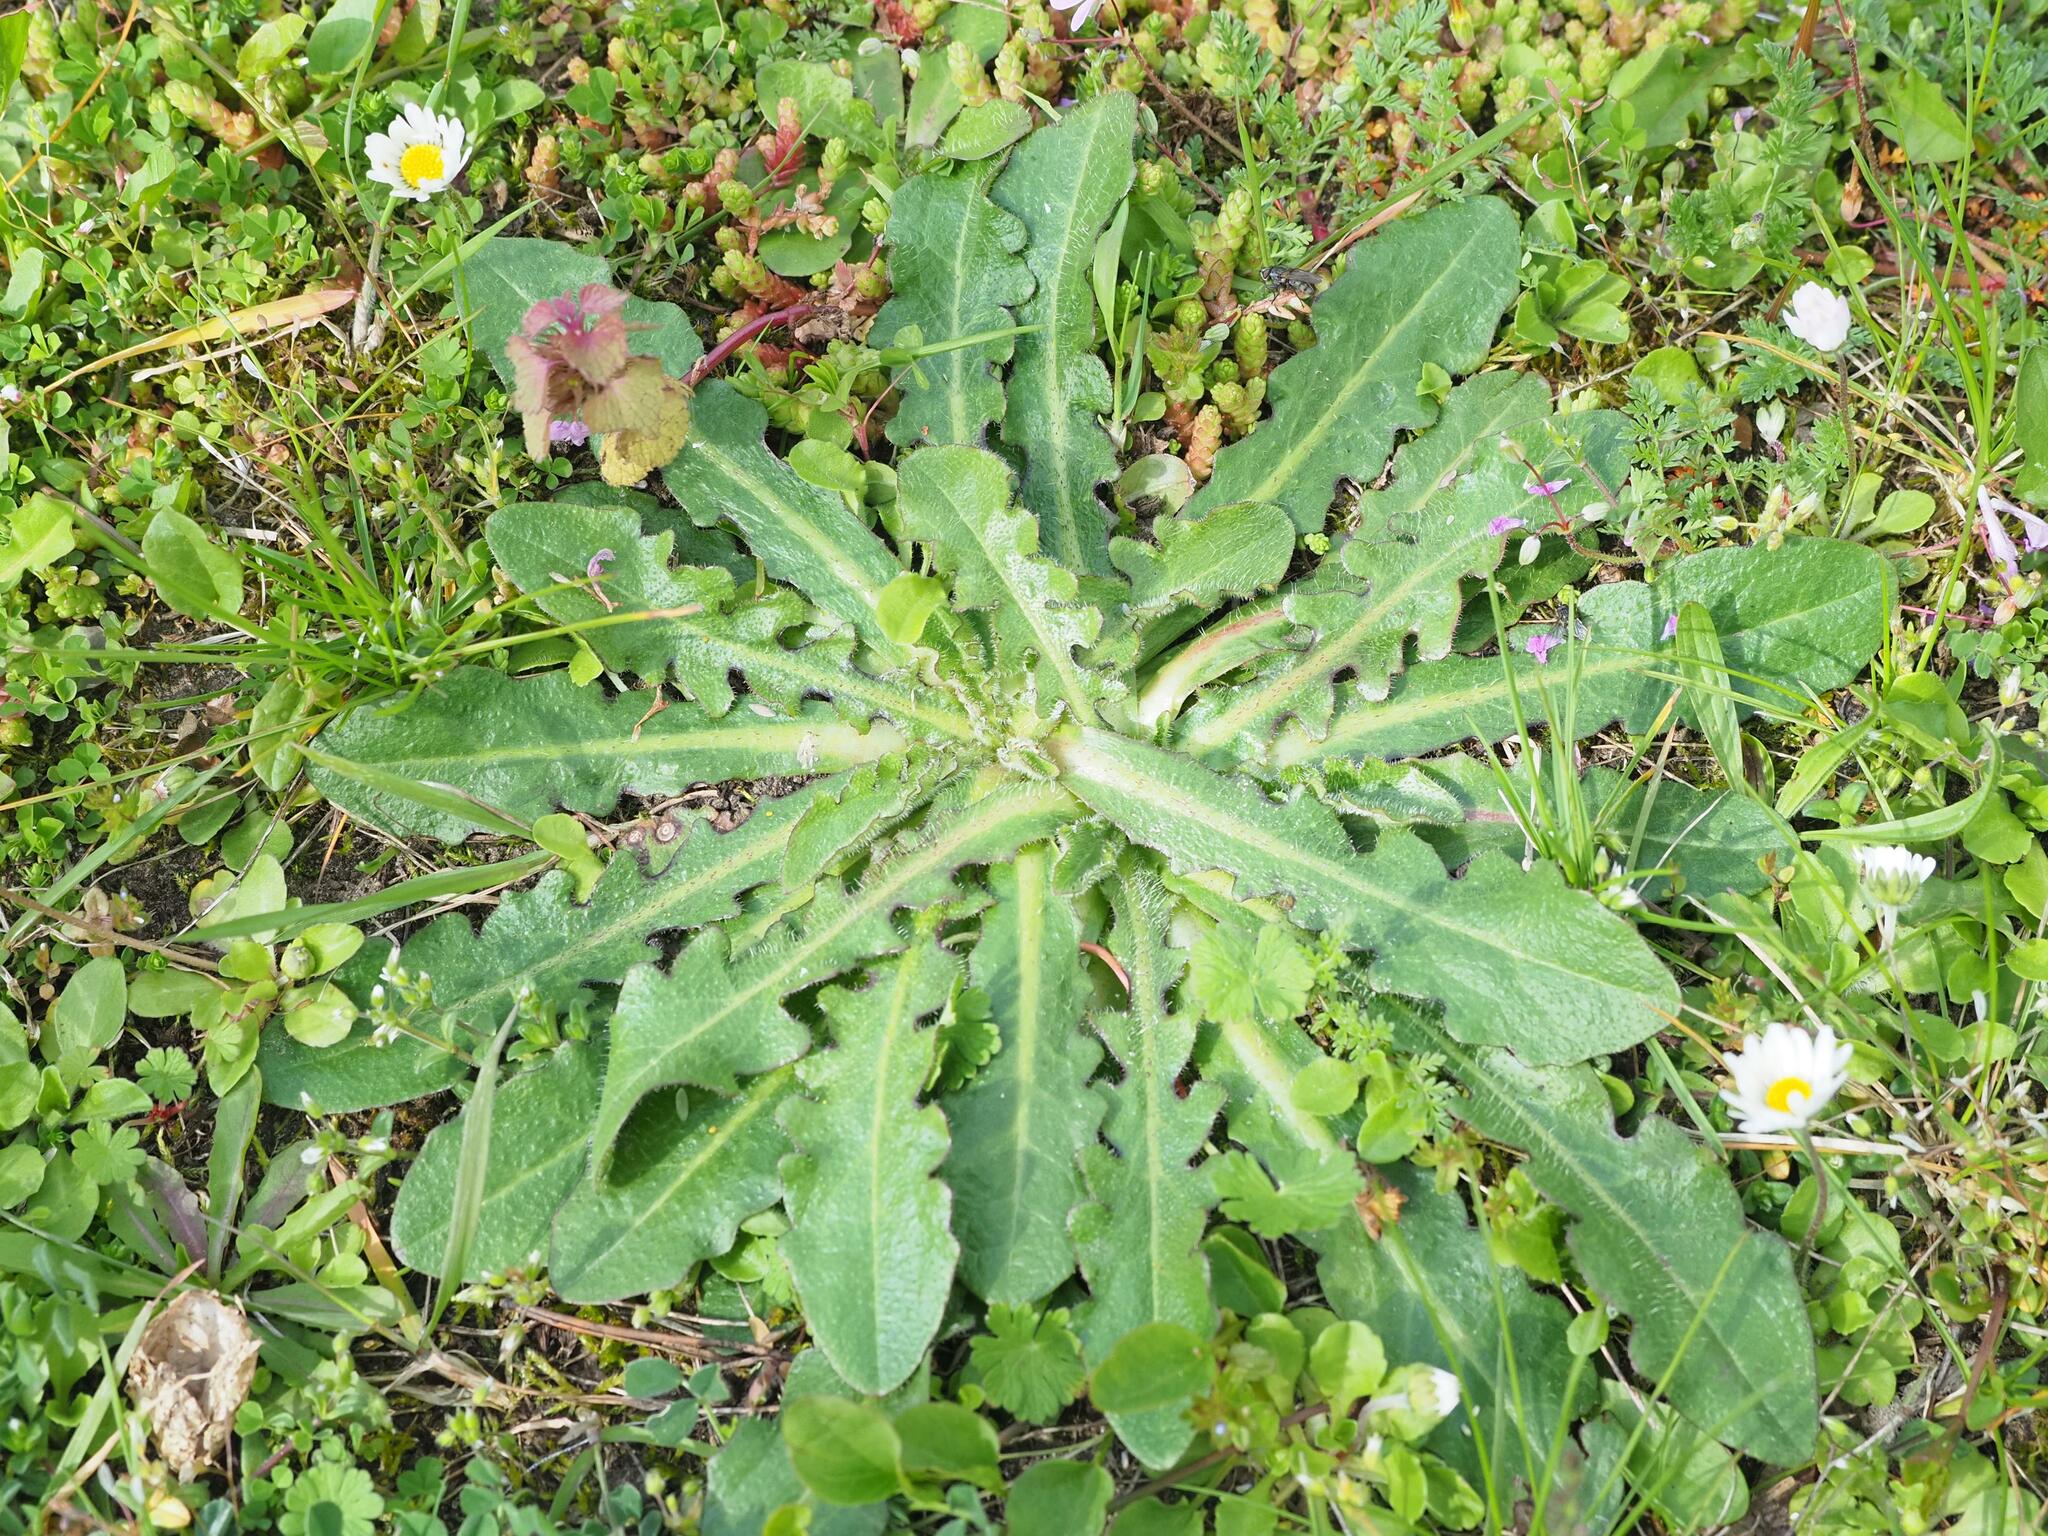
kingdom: Plantae
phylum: Tracheophyta
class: Magnoliopsida
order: Asterales
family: Asteraceae
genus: Hypochaeris
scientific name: Hypochaeris radicata
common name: Flatweed
